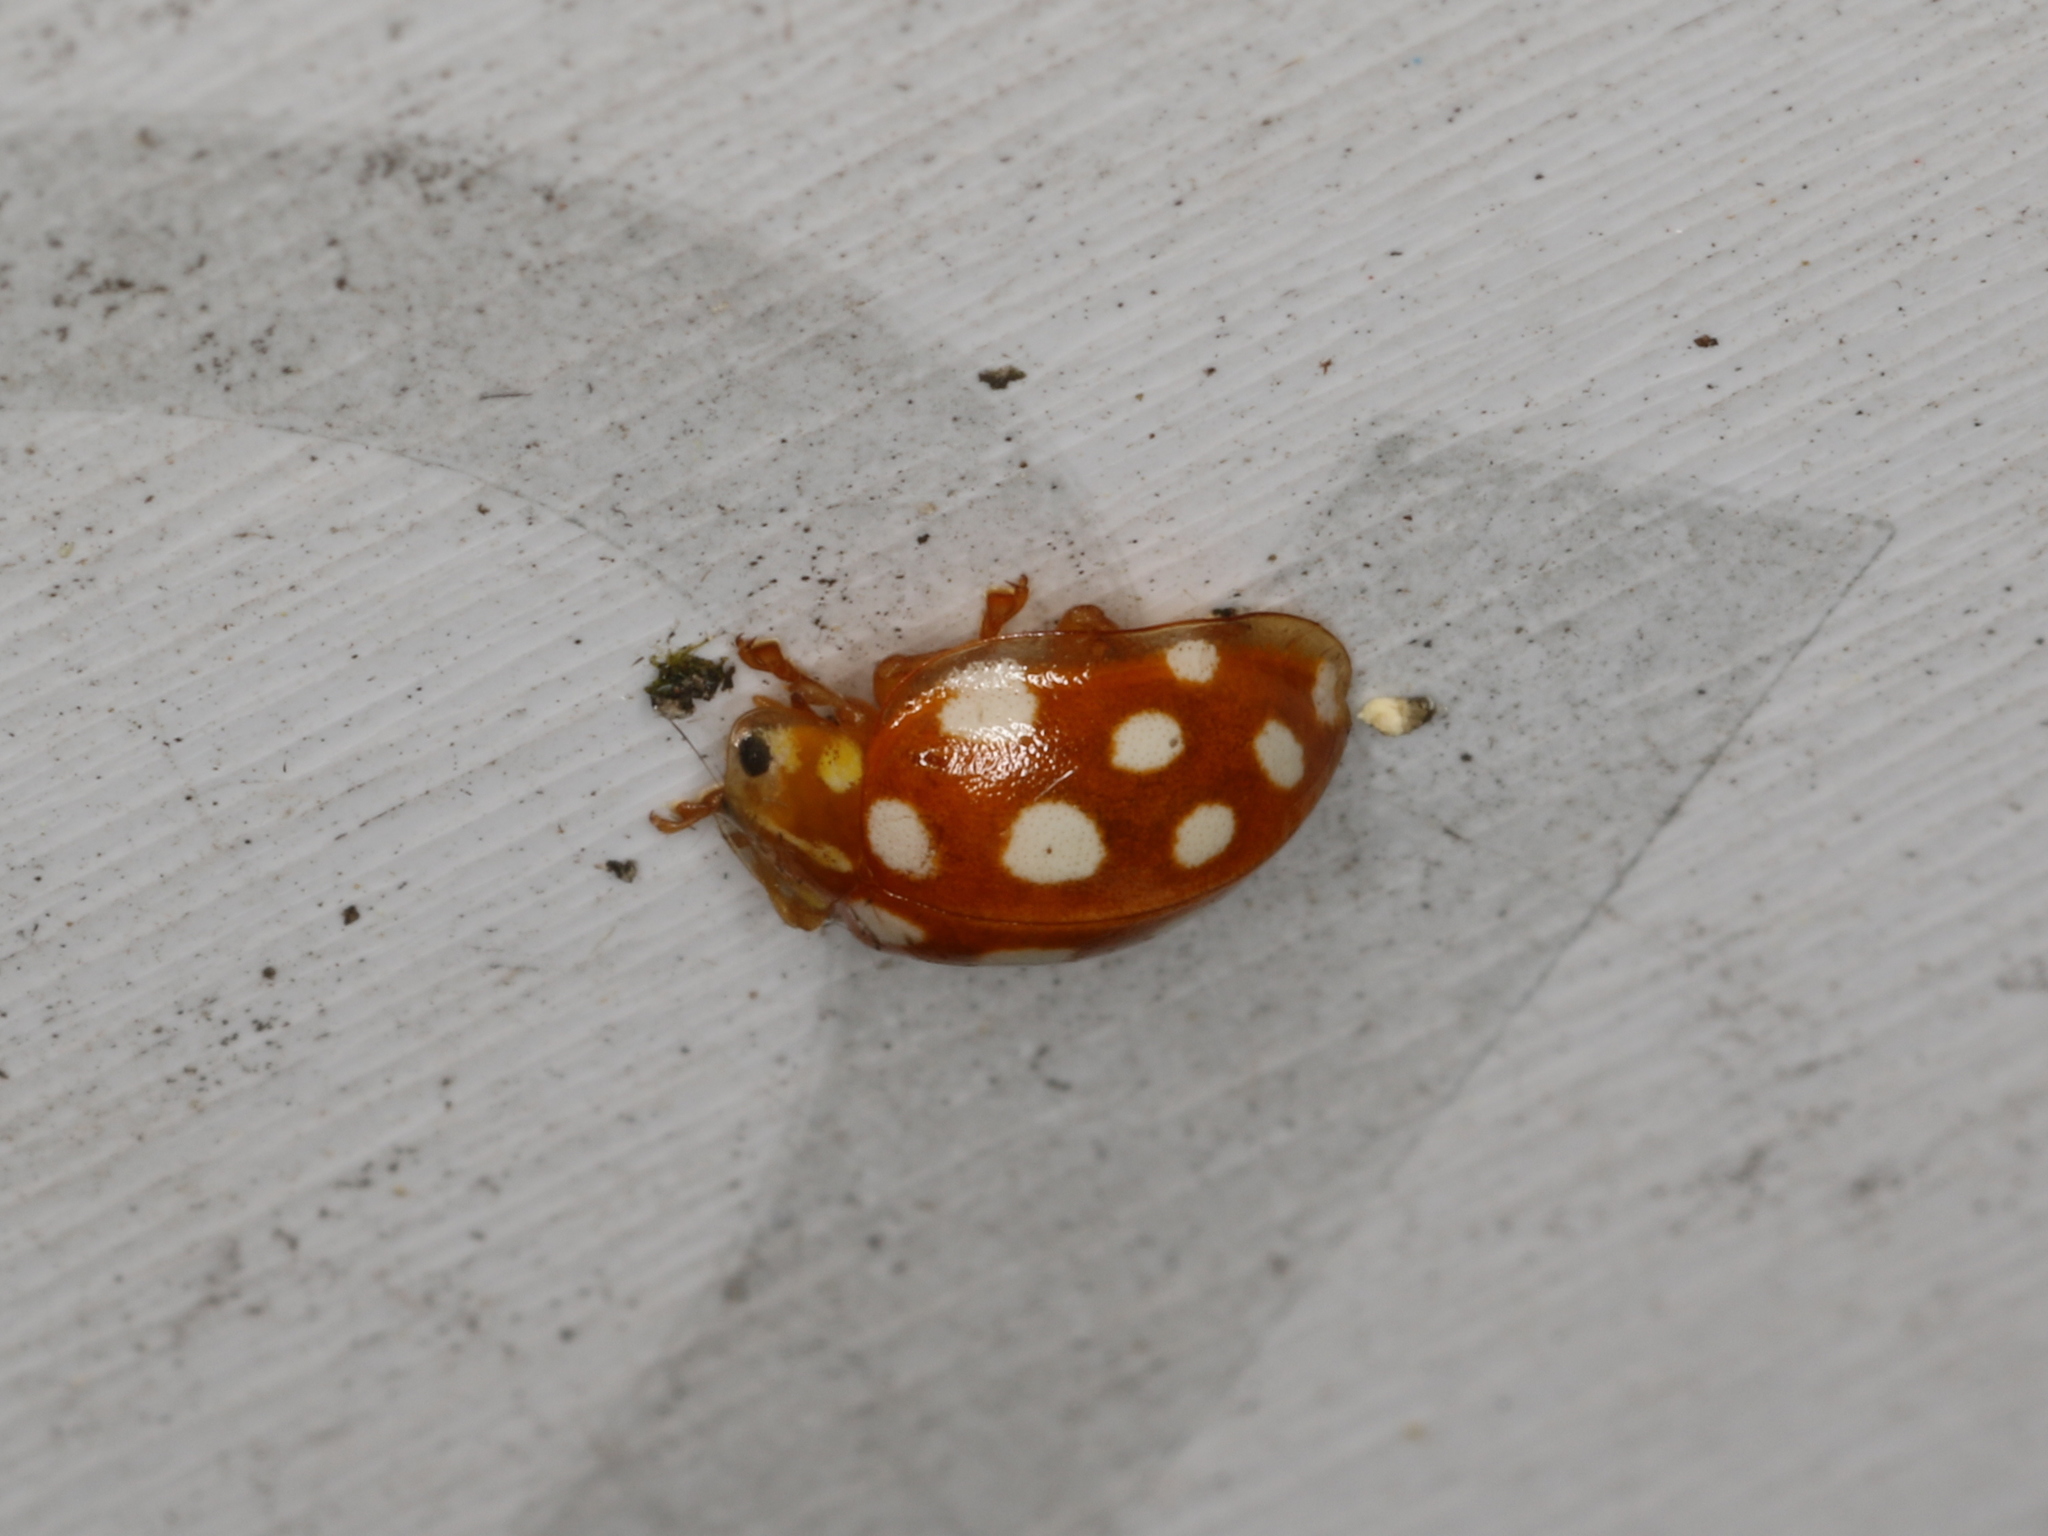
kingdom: Animalia
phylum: Arthropoda
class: Insecta
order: Coleoptera
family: Coccinellidae
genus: Halyzia
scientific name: Halyzia sedecimguttata
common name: Orange ladybird
